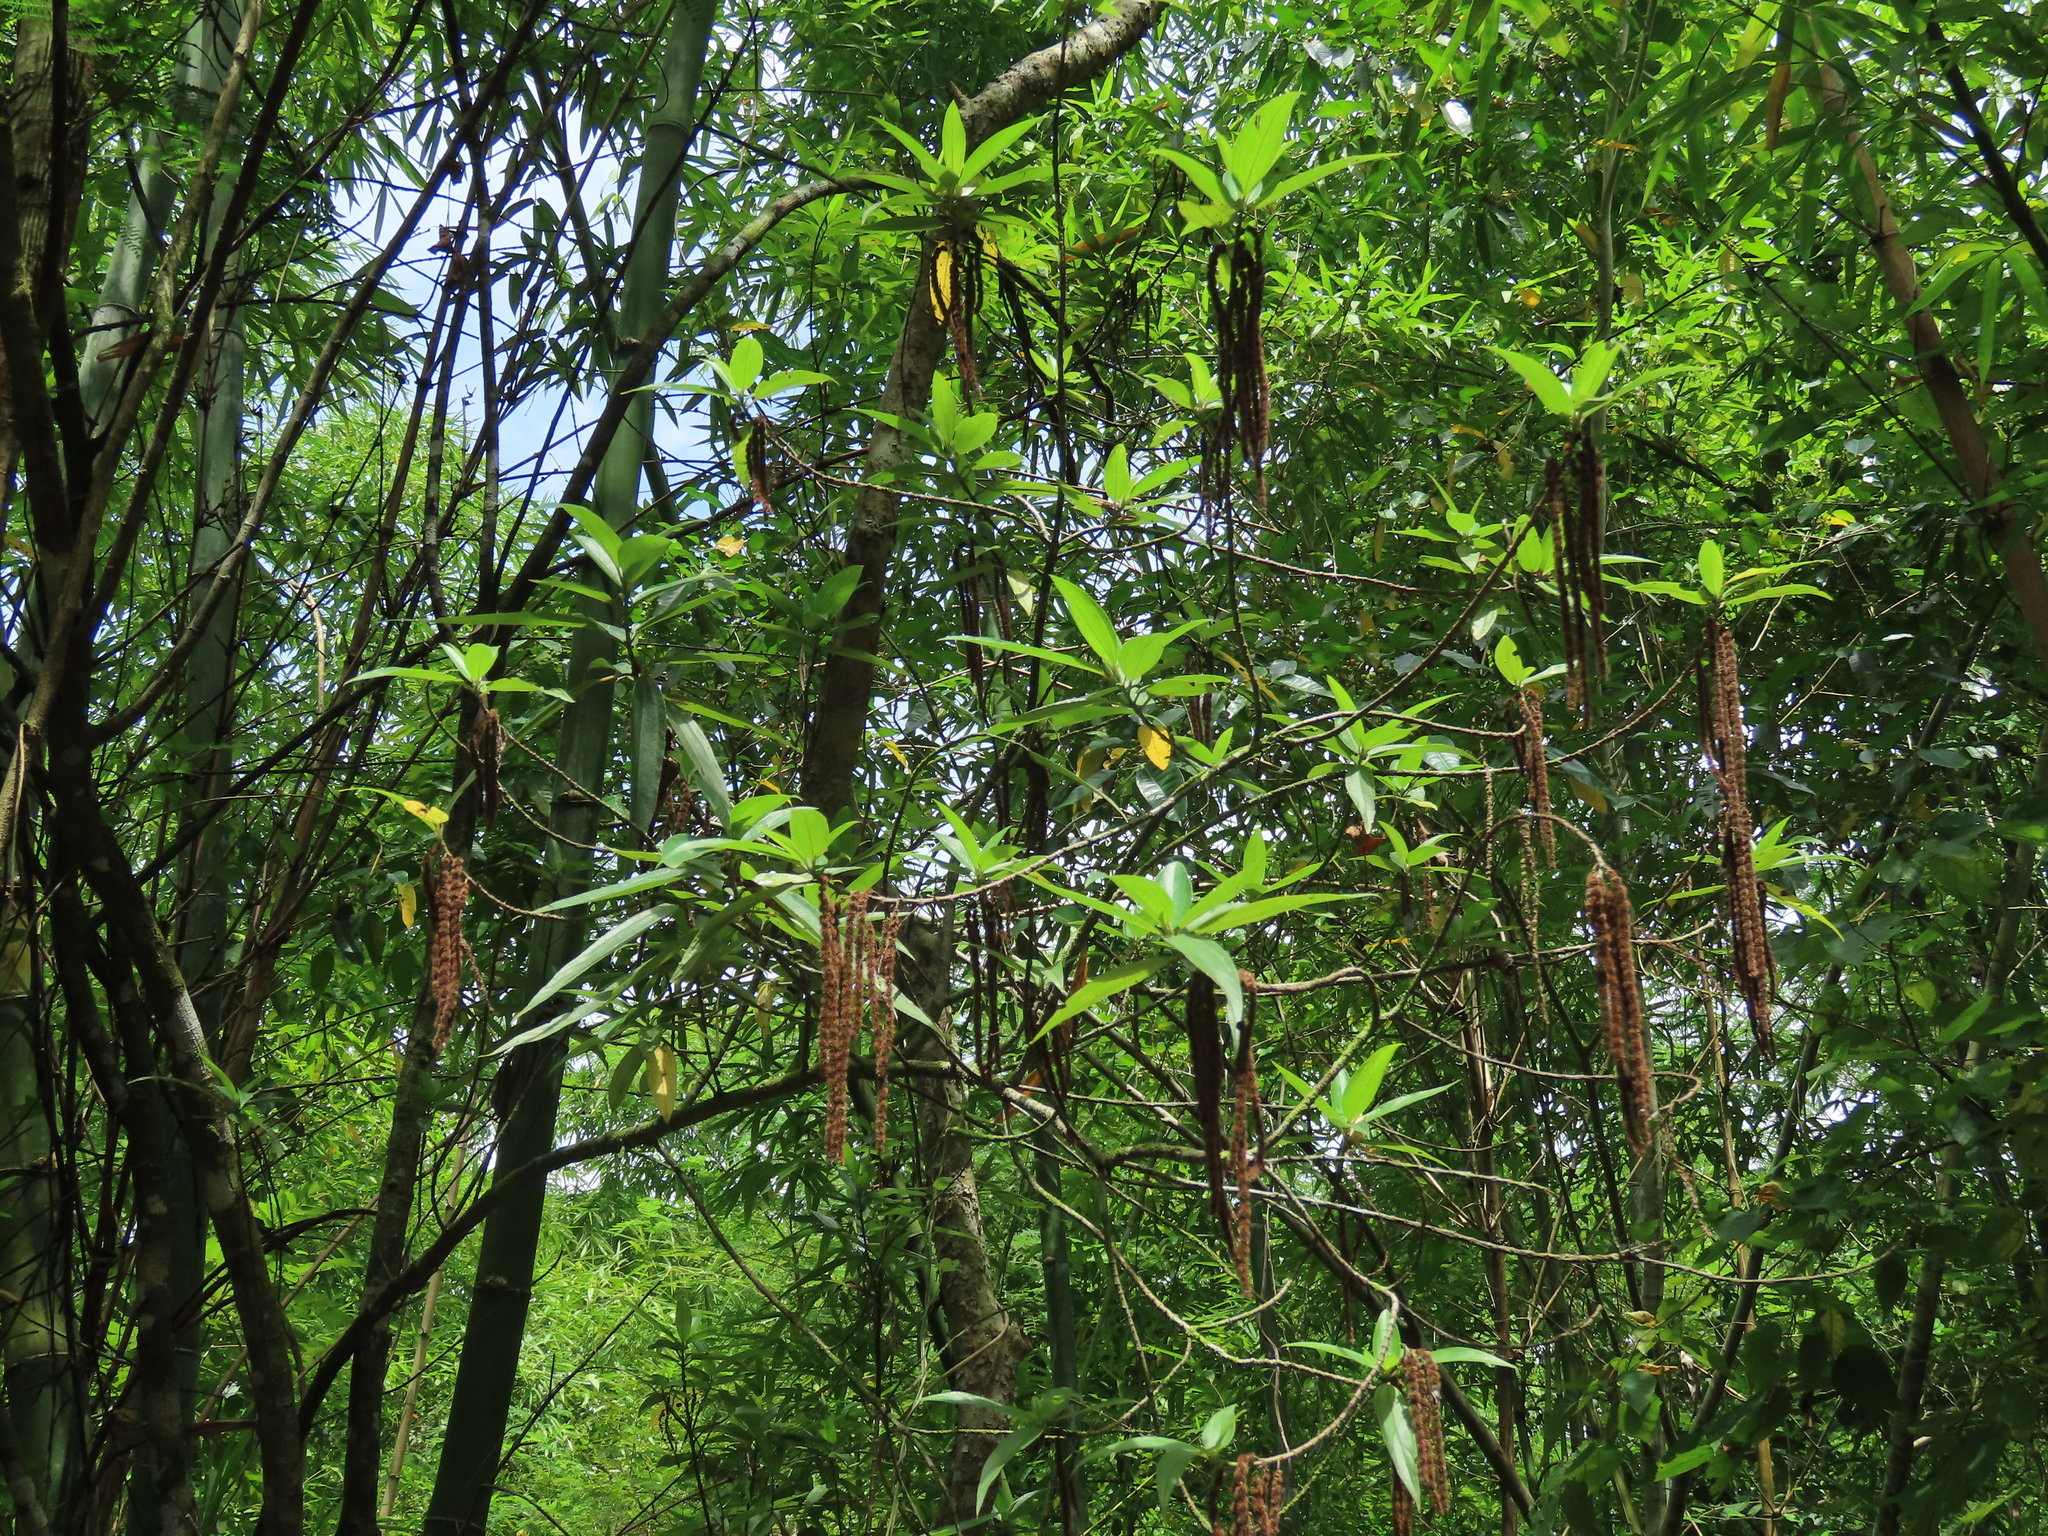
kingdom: Plantae
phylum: Tracheophyta
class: Magnoliopsida
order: Rosales
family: Urticaceae
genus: Boehmeria
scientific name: Boehmeria densiflora
